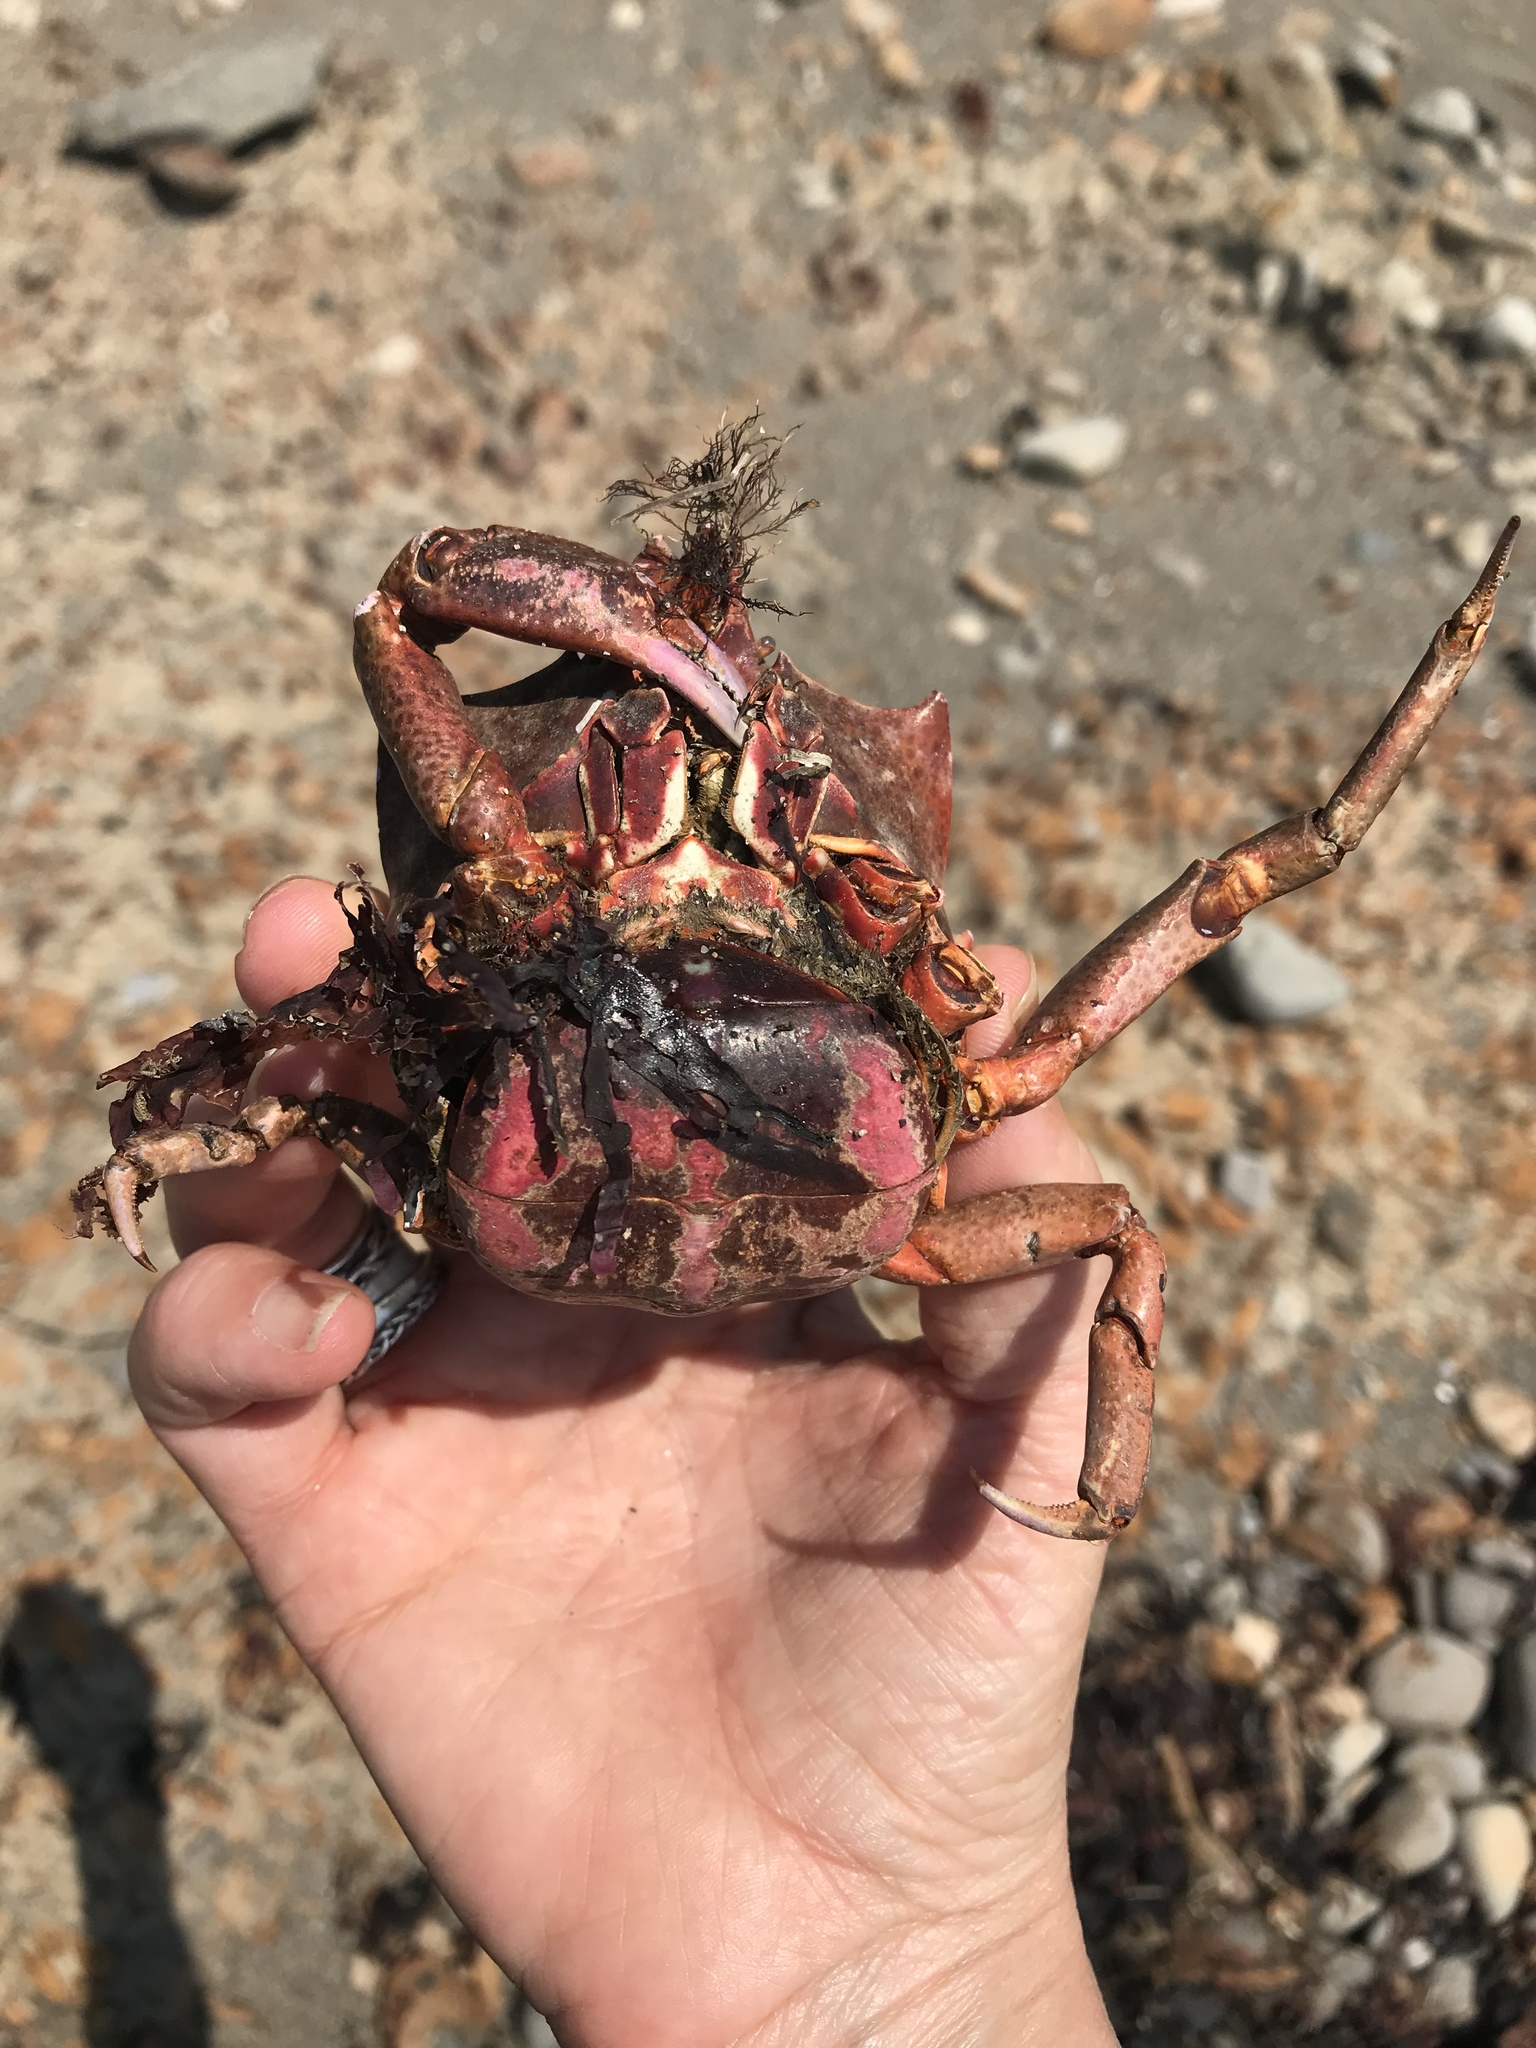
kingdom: Animalia
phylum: Arthropoda
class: Malacostraca
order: Decapoda
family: Epialtidae
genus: Pugettia
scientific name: Pugettia producta
